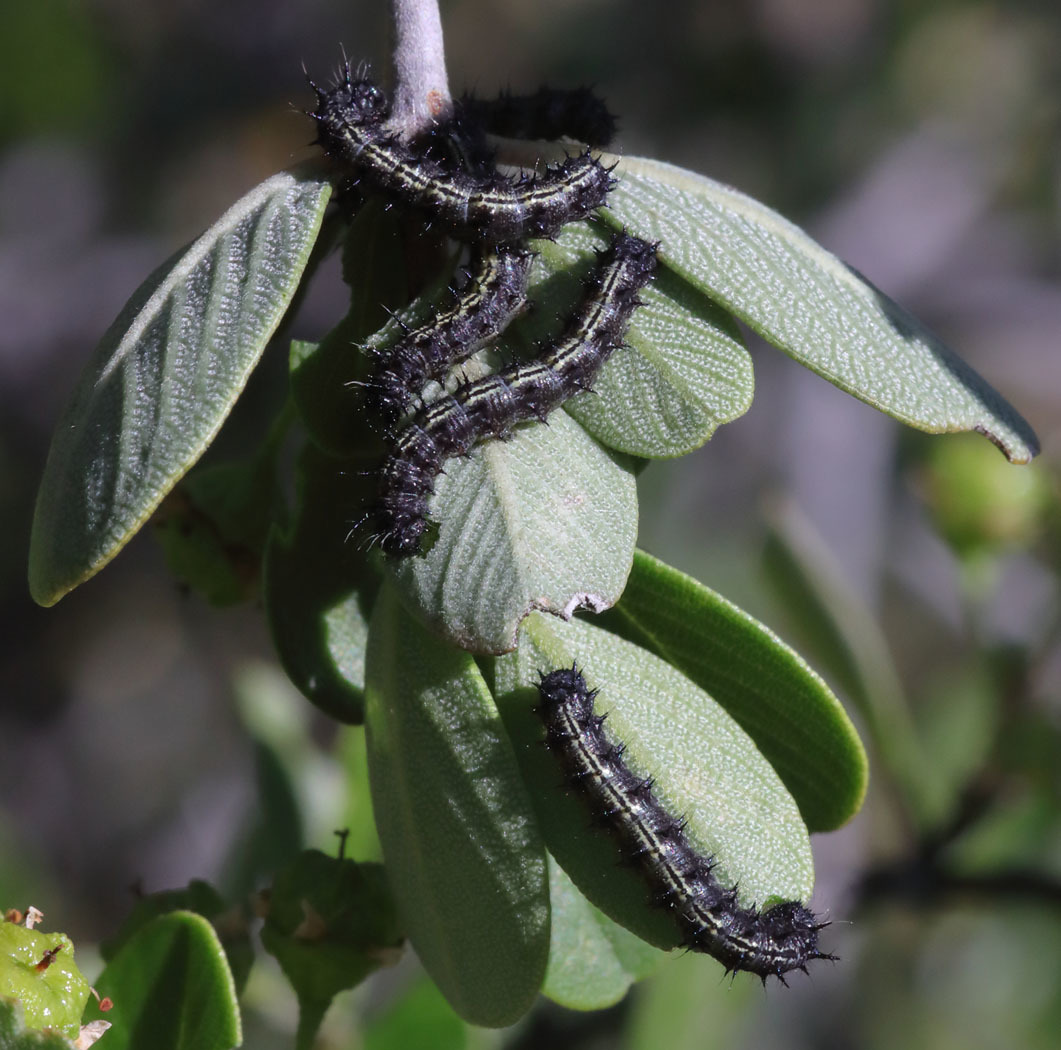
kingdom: Animalia
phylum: Arthropoda
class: Insecta
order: Lepidoptera
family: Nymphalidae
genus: Nymphalis
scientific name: Nymphalis californica
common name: California tortoiseshell
